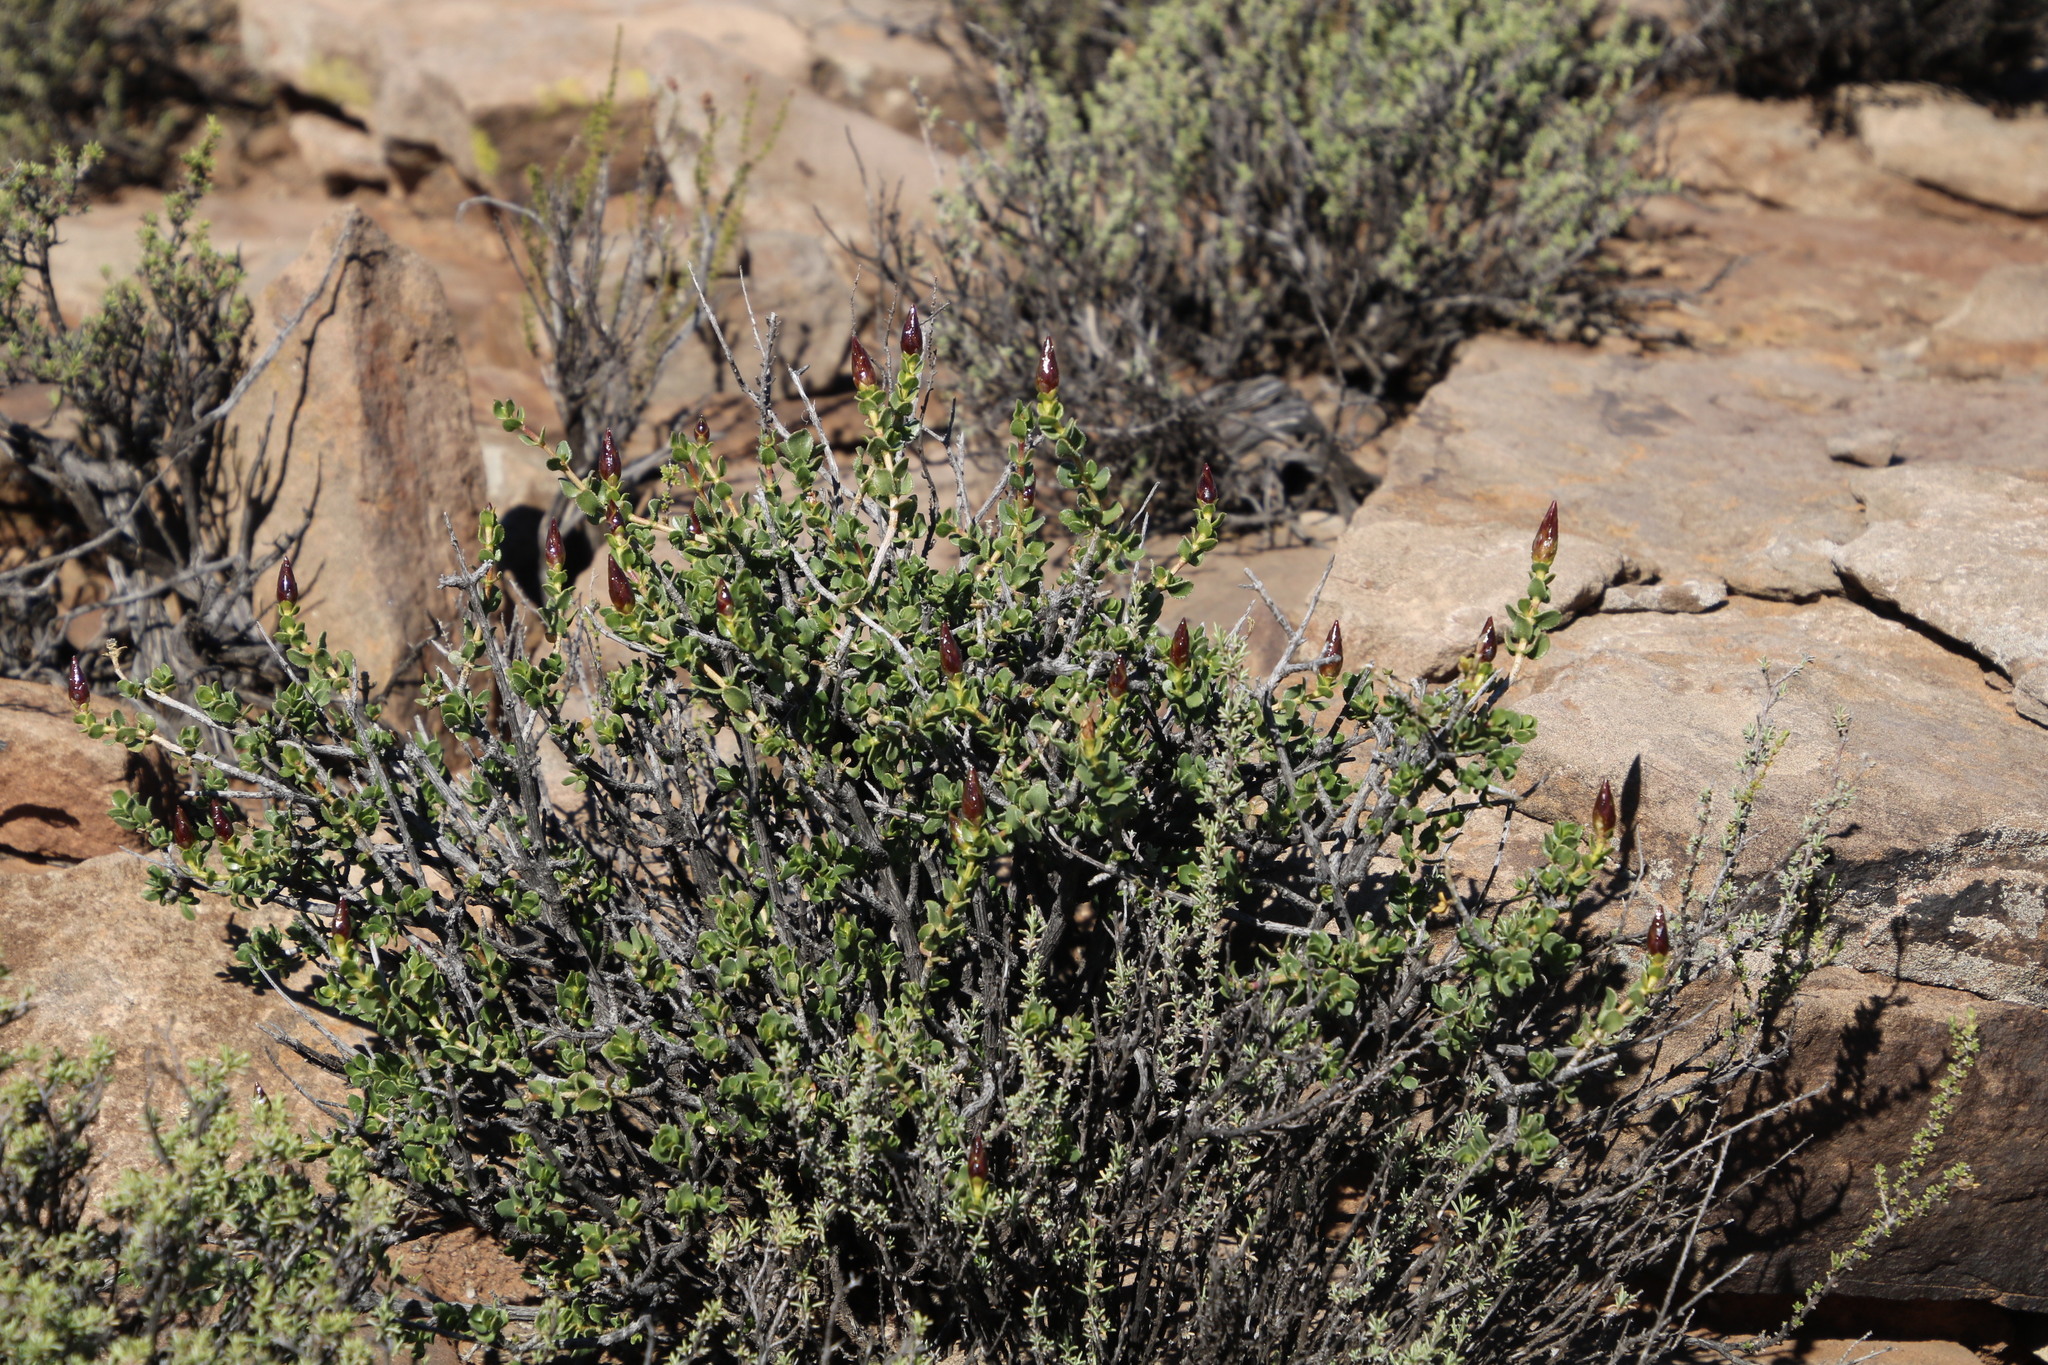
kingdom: Plantae
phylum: Tracheophyta
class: Magnoliopsida
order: Asterales
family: Asteraceae
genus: Pteronia
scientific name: Pteronia adenocarpa
